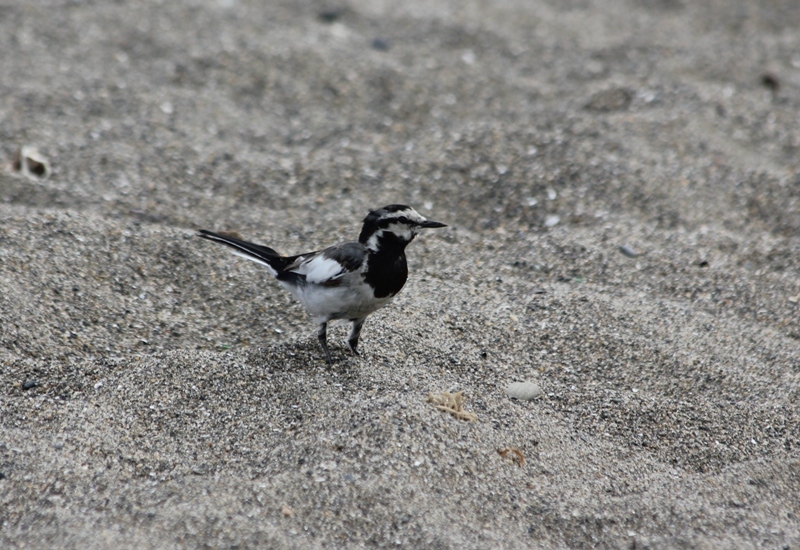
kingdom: Animalia
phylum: Chordata
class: Aves
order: Passeriformes
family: Motacillidae
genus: Motacilla
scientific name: Motacilla alba
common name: White wagtail
